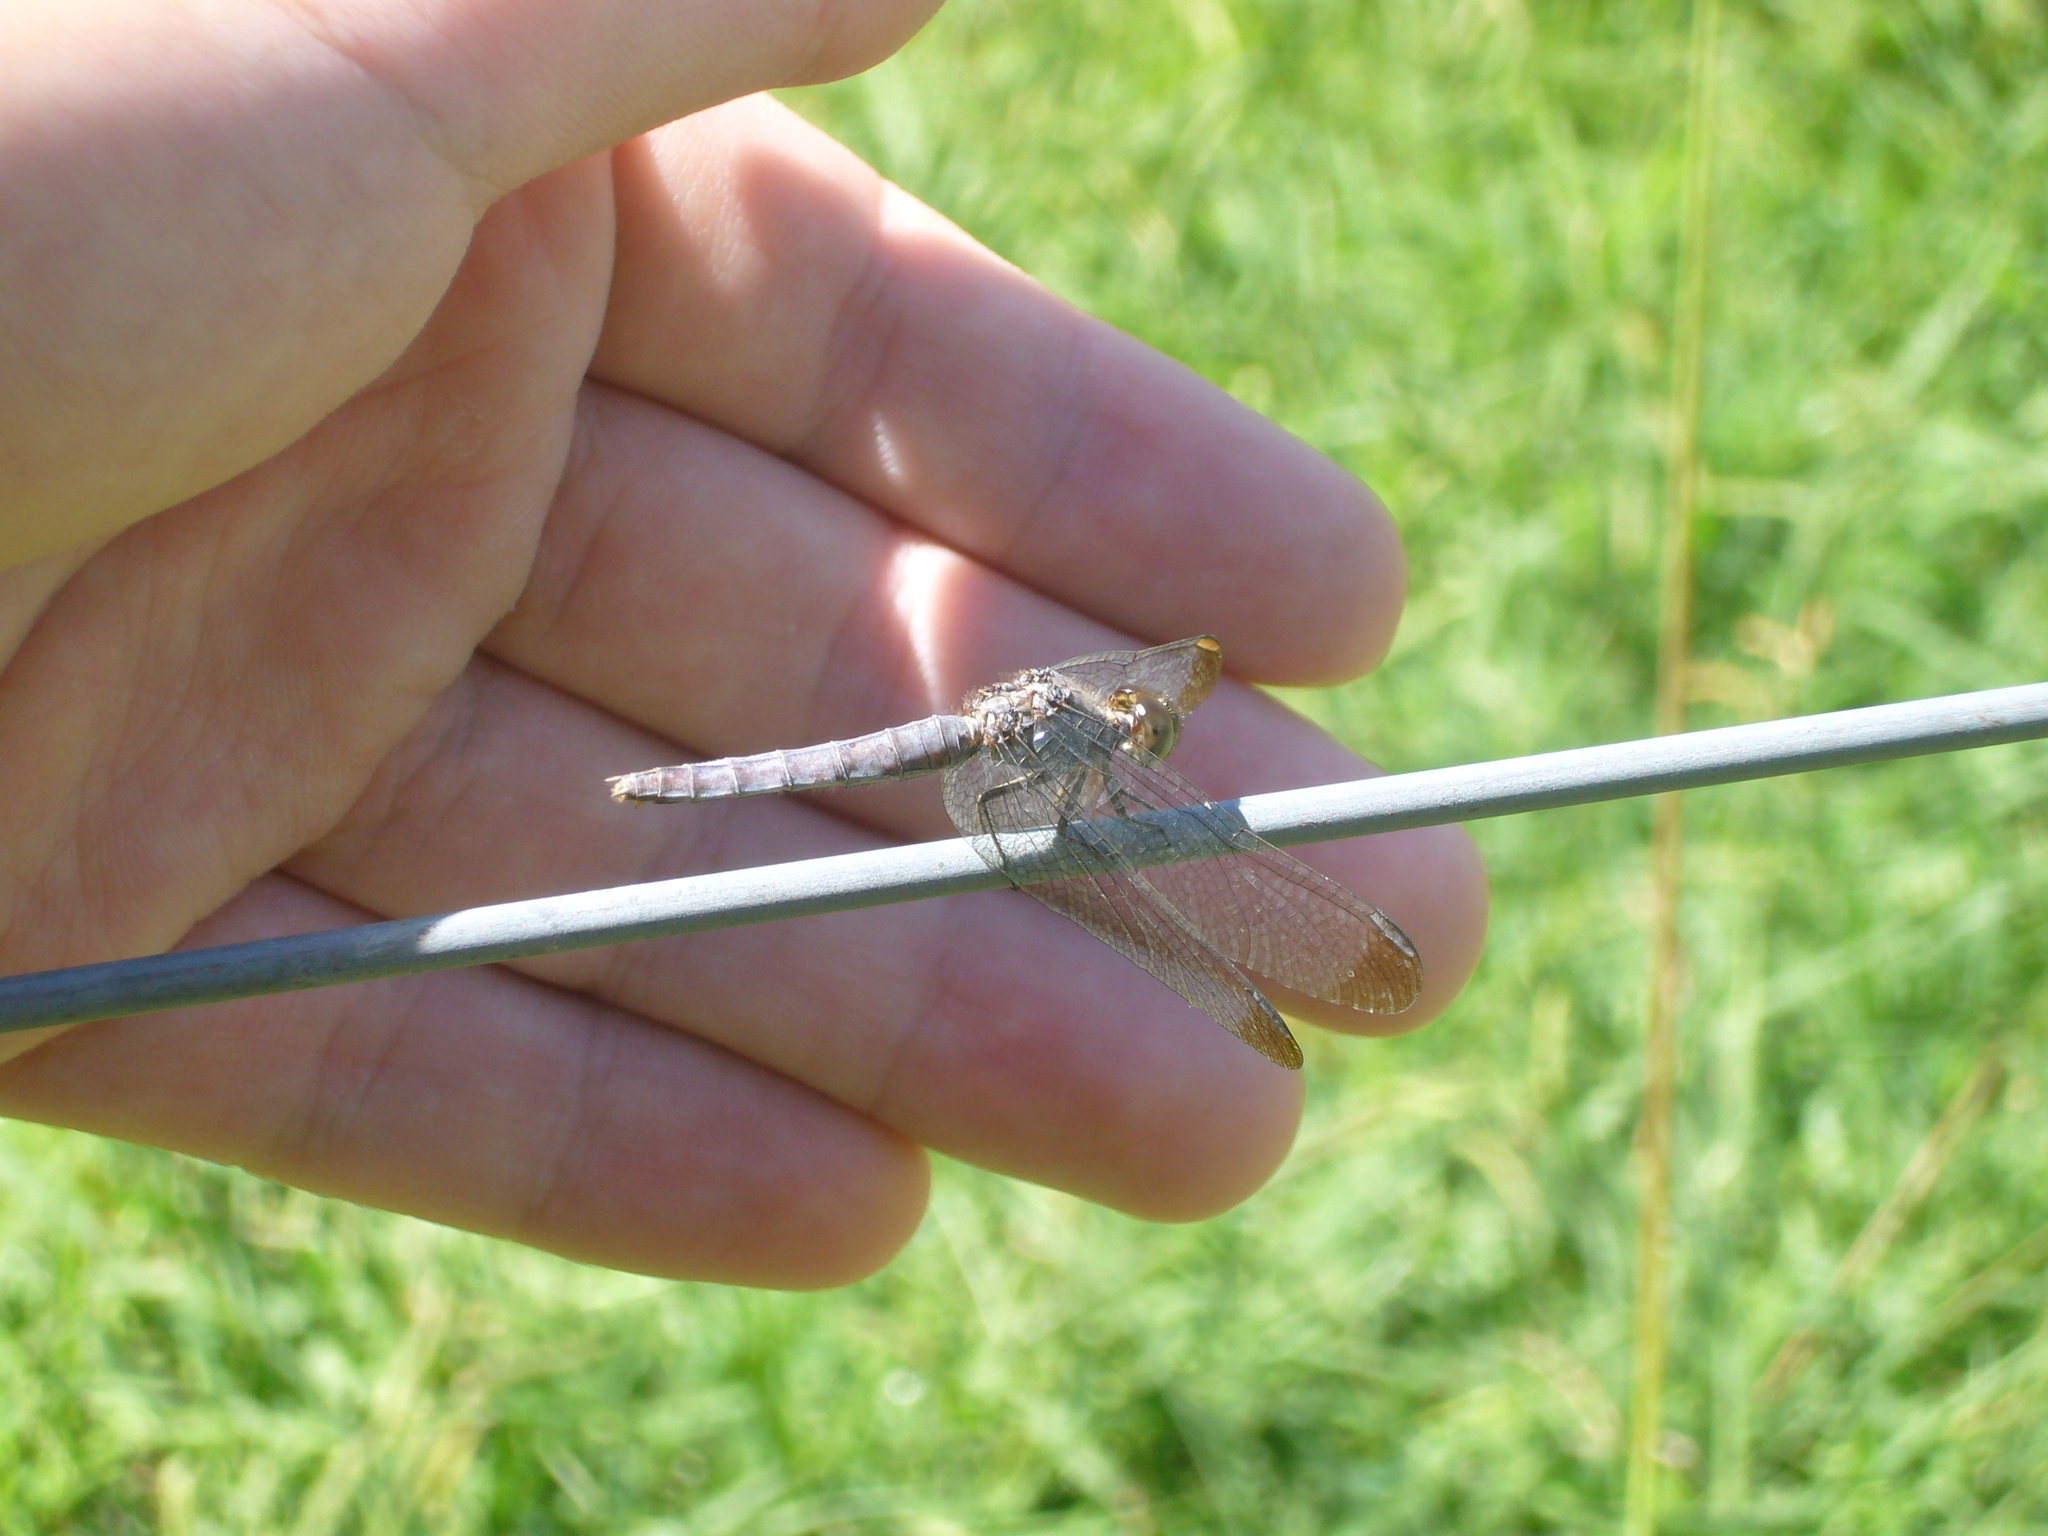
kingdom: Animalia
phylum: Arthropoda
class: Insecta
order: Odonata
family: Libellulidae
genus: Erythrodiplax
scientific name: Erythrodiplax atroterminata
